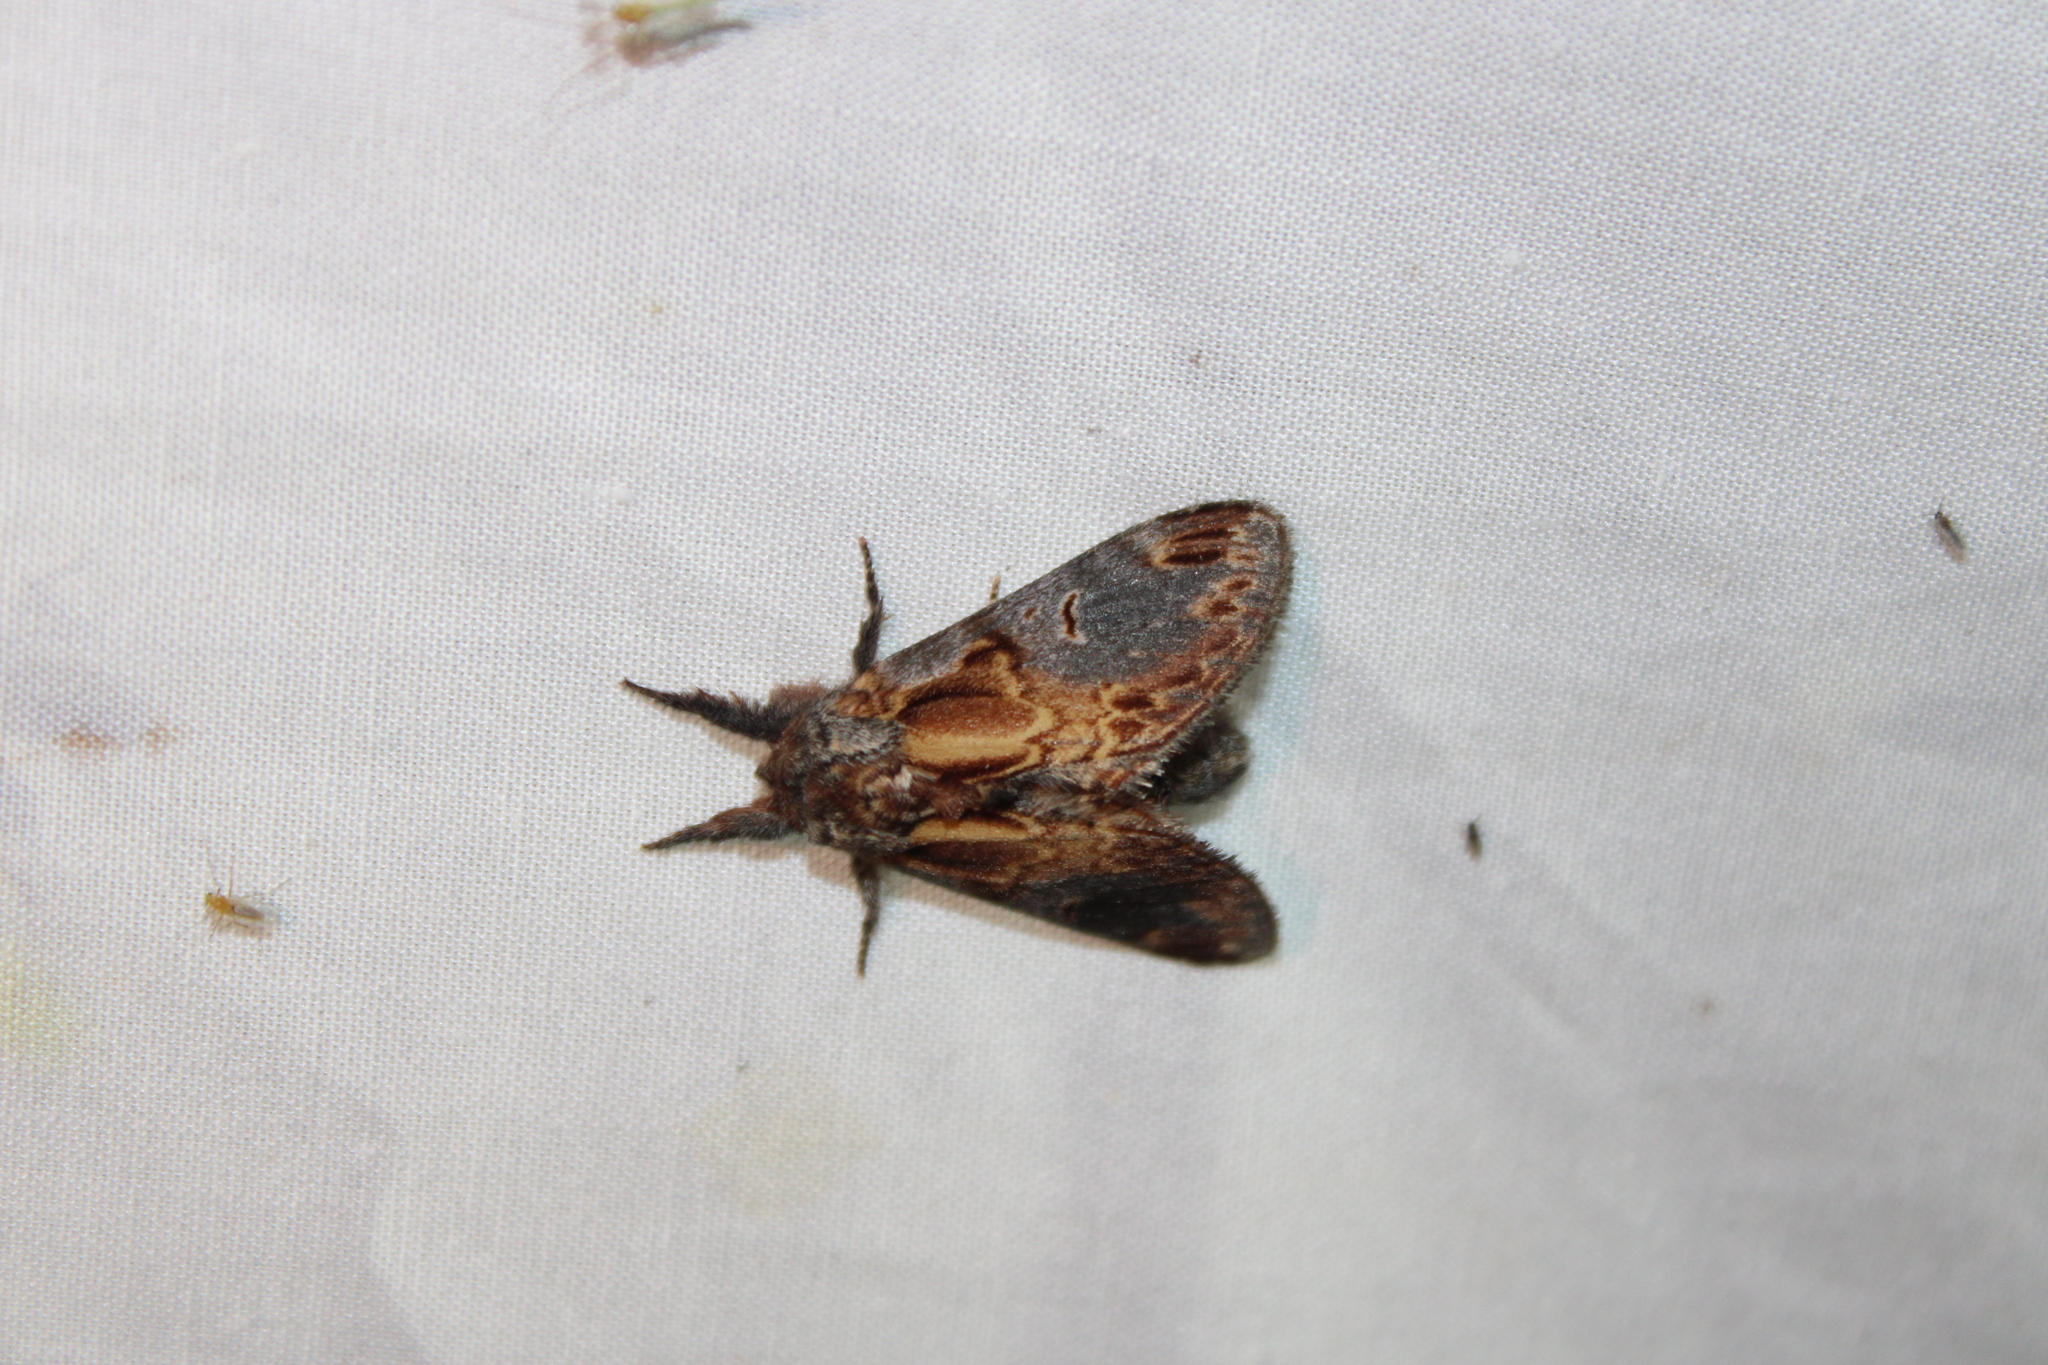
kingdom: Animalia
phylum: Arthropoda
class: Insecta
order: Lepidoptera
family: Notodontidae
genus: Notodonta
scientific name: Notodonta scitipennis
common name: Finned-willow prominent moth
